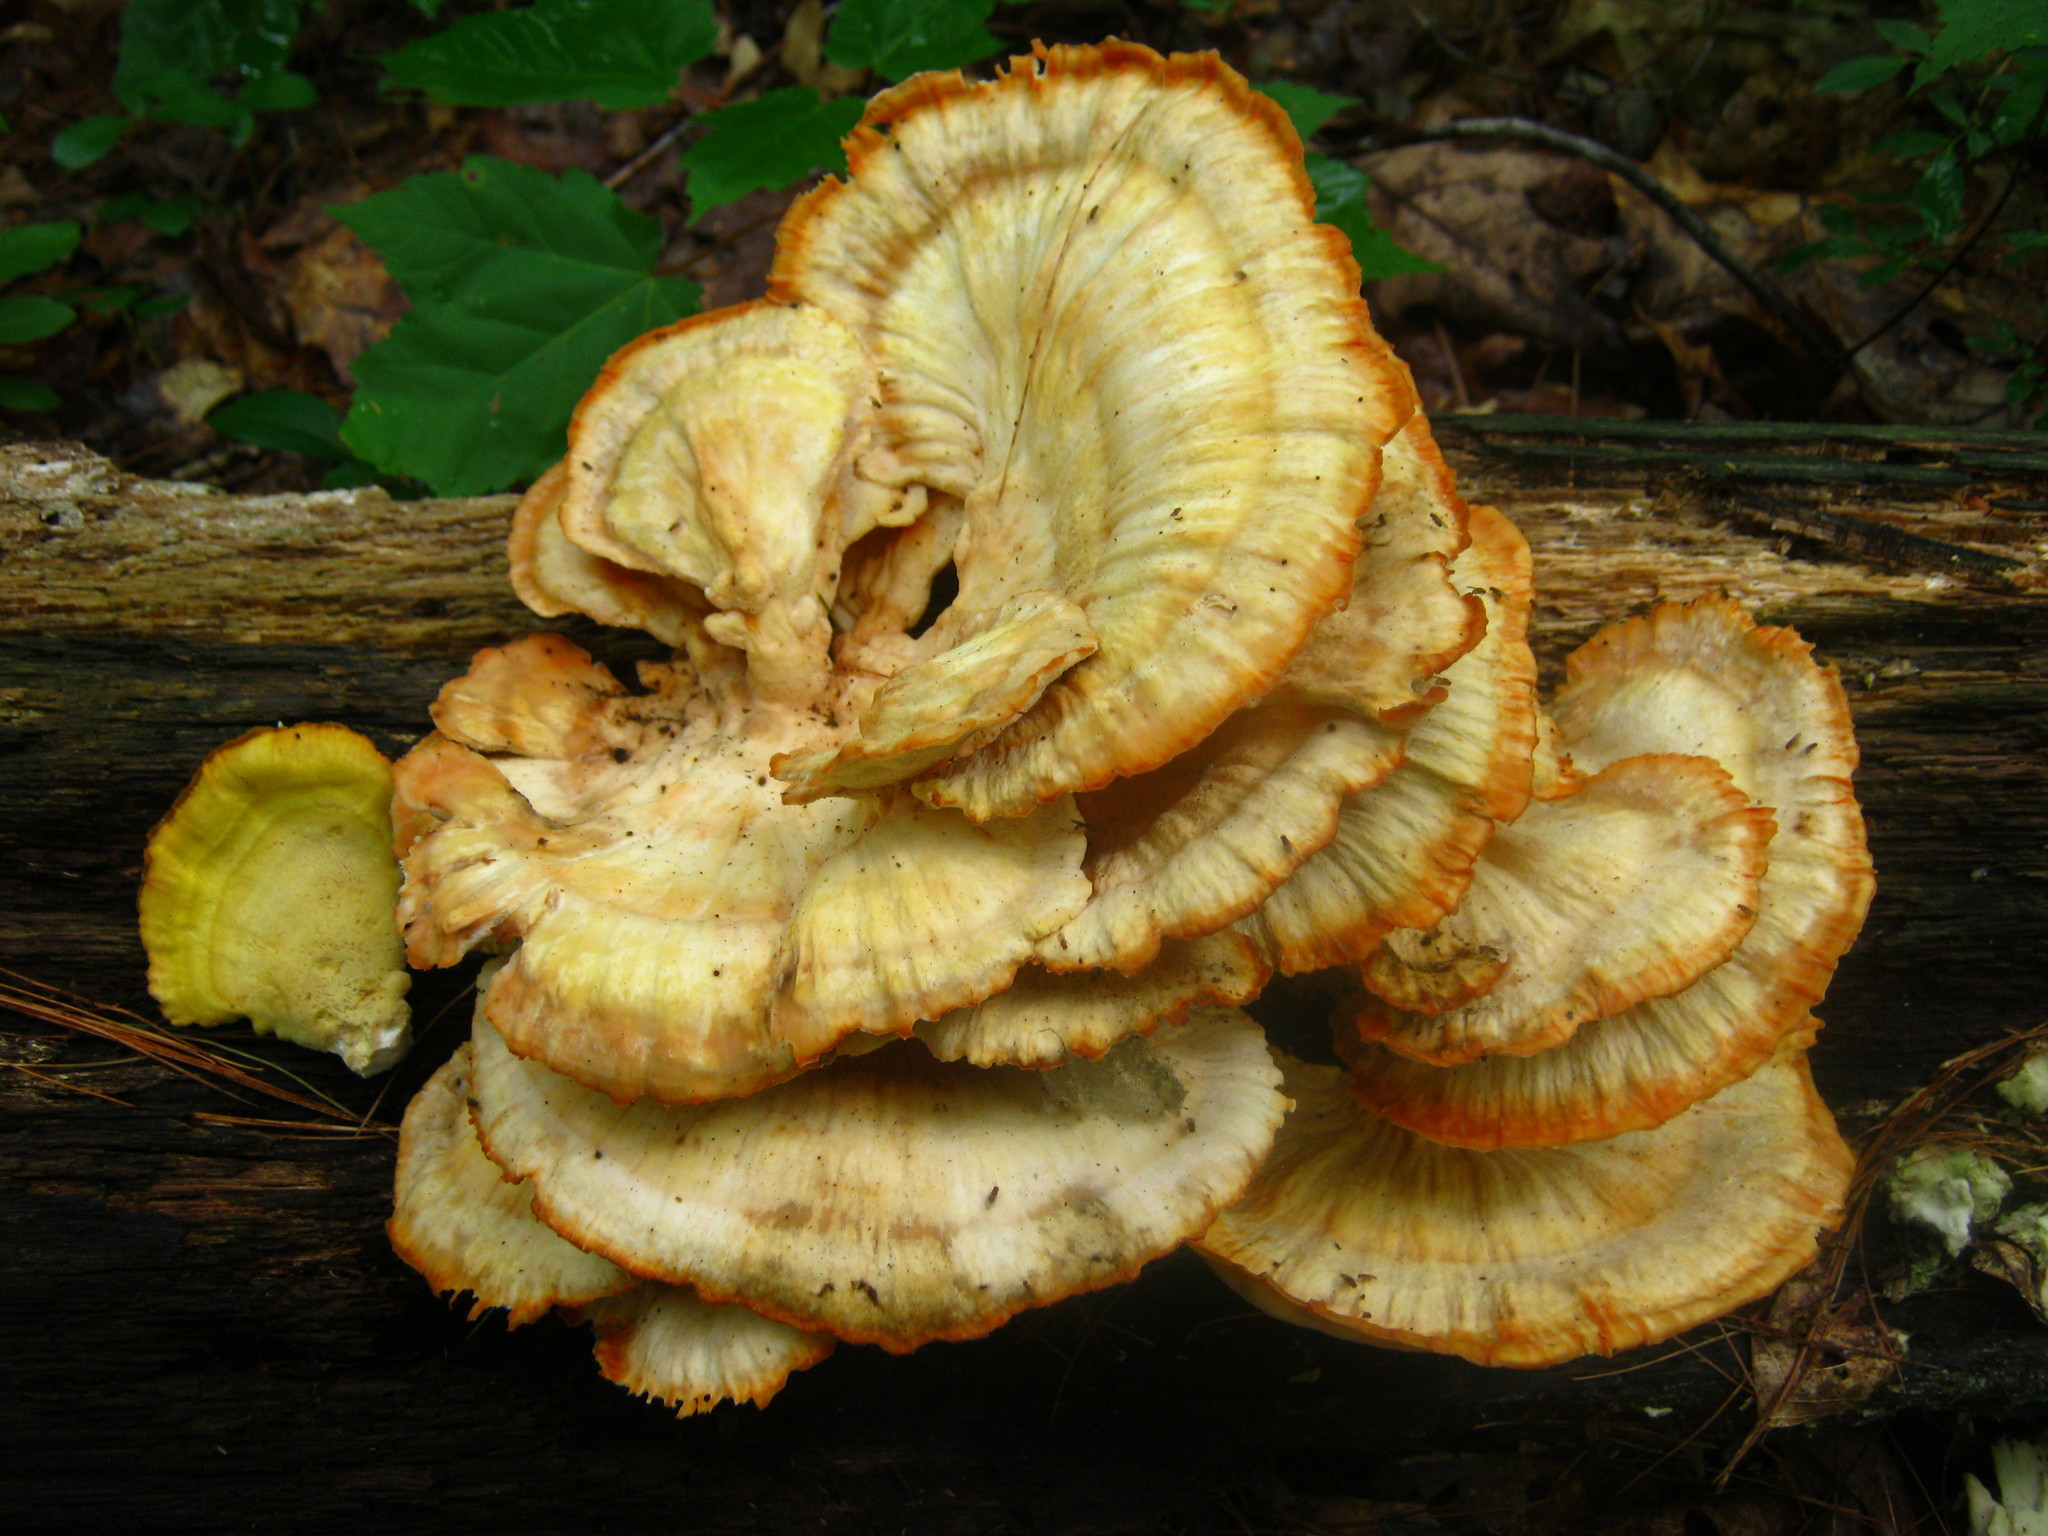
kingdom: Fungi
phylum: Basidiomycota
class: Agaricomycetes
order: Polyporales
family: Laetiporaceae
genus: Laetiporus
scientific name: Laetiporus sulphureus
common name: Chicken of the woods
